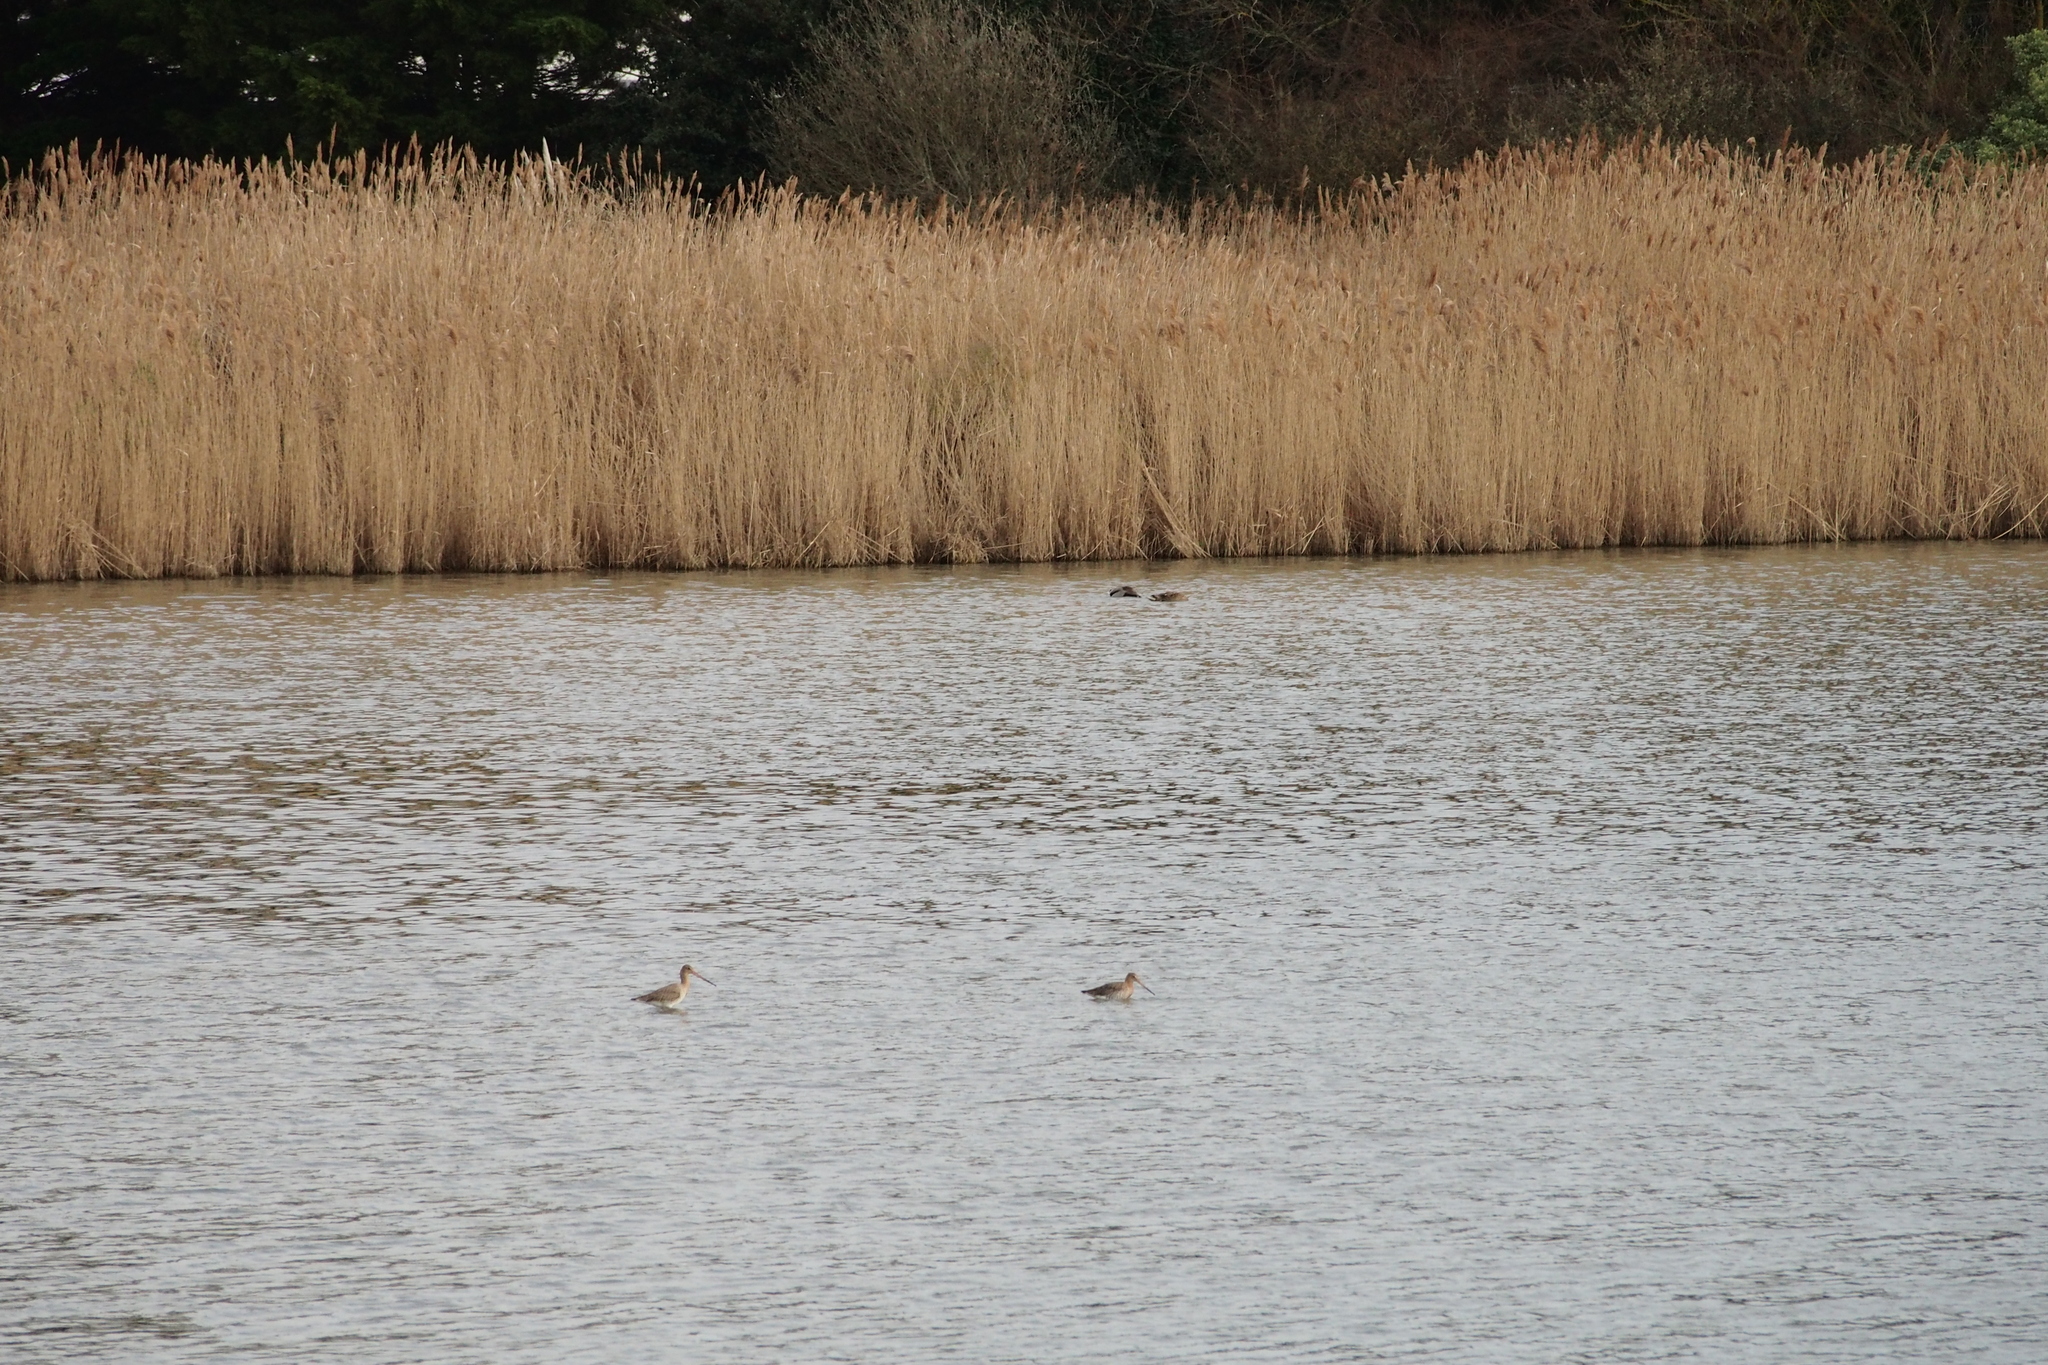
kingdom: Animalia
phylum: Chordata
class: Aves
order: Charadriiformes
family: Scolopacidae
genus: Limosa
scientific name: Limosa limosa
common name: Black-tailed godwit
